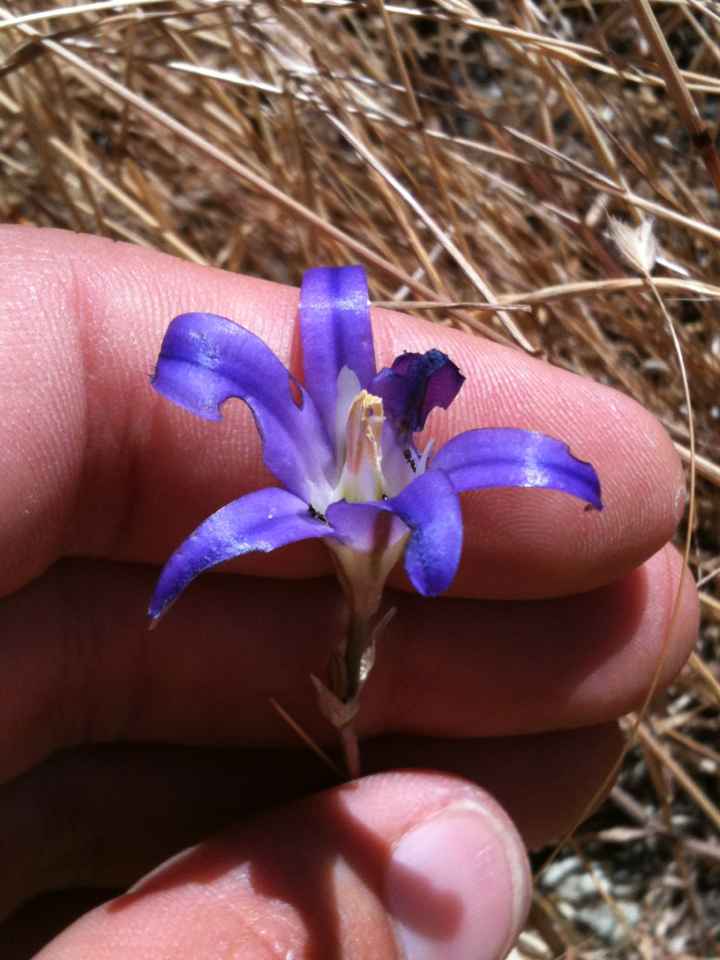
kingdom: Plantae
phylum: Tracheophyta
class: Liliopsida
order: Asparagales
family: Asparagaceae
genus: Brodiaea
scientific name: Brodiaea elegans
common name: Elegant cluster-lily
